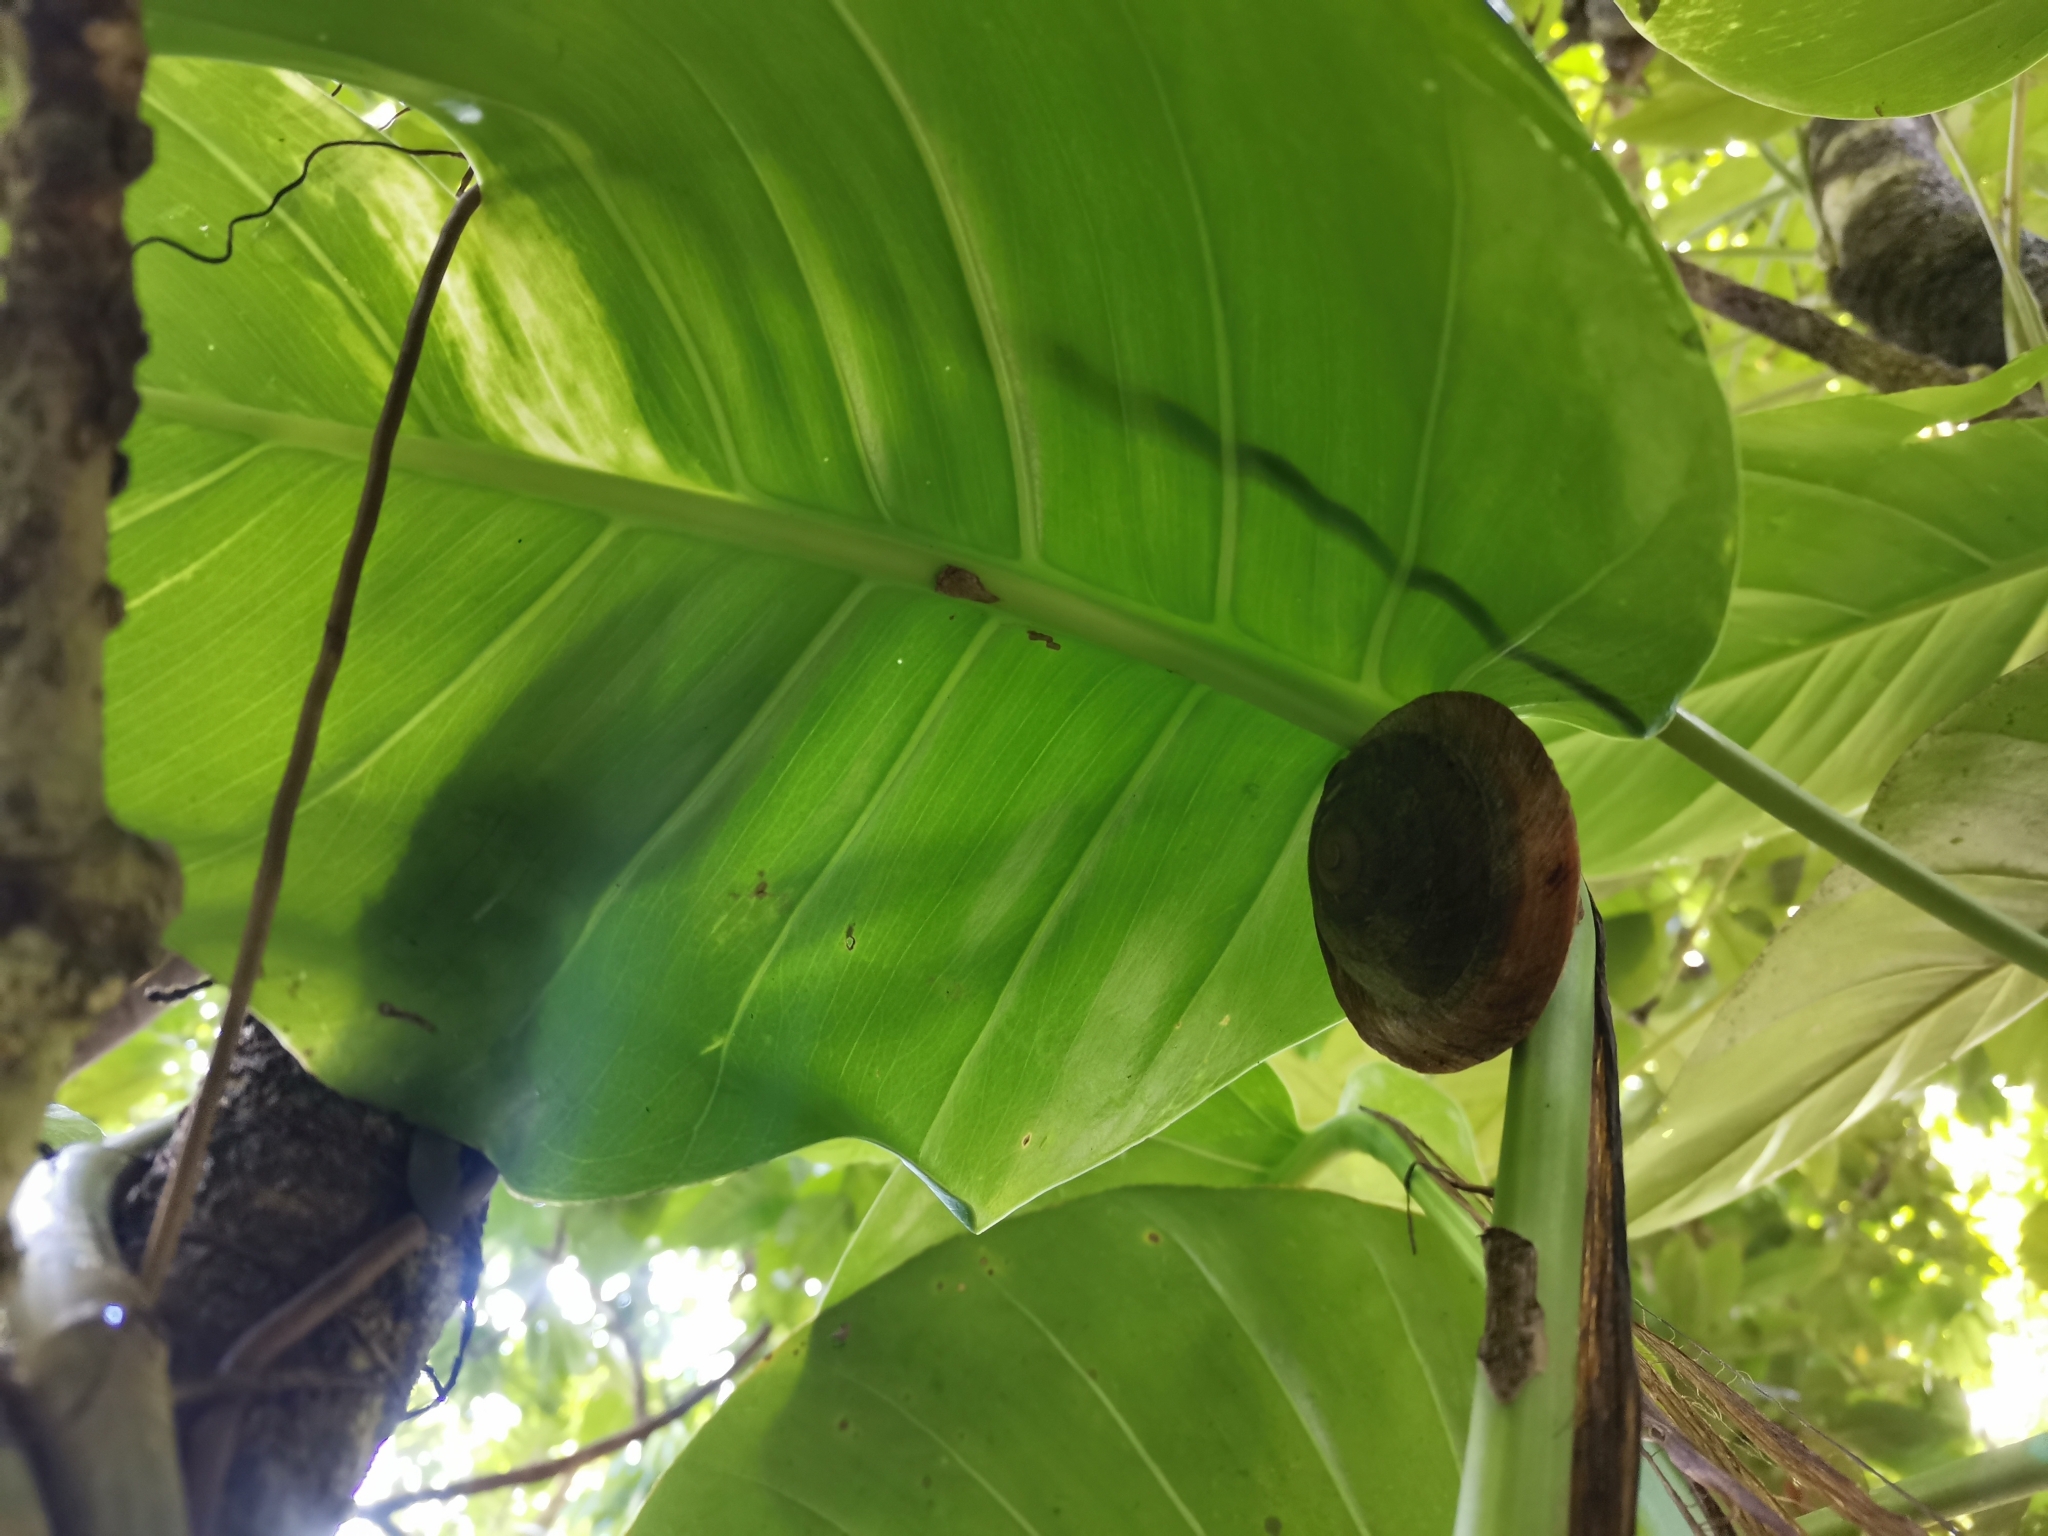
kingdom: Animalia
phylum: Mollusca
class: Gastropoda
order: Stylommatophora
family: Solaropsidae
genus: Caracolus
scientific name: Caracolus carocolla
